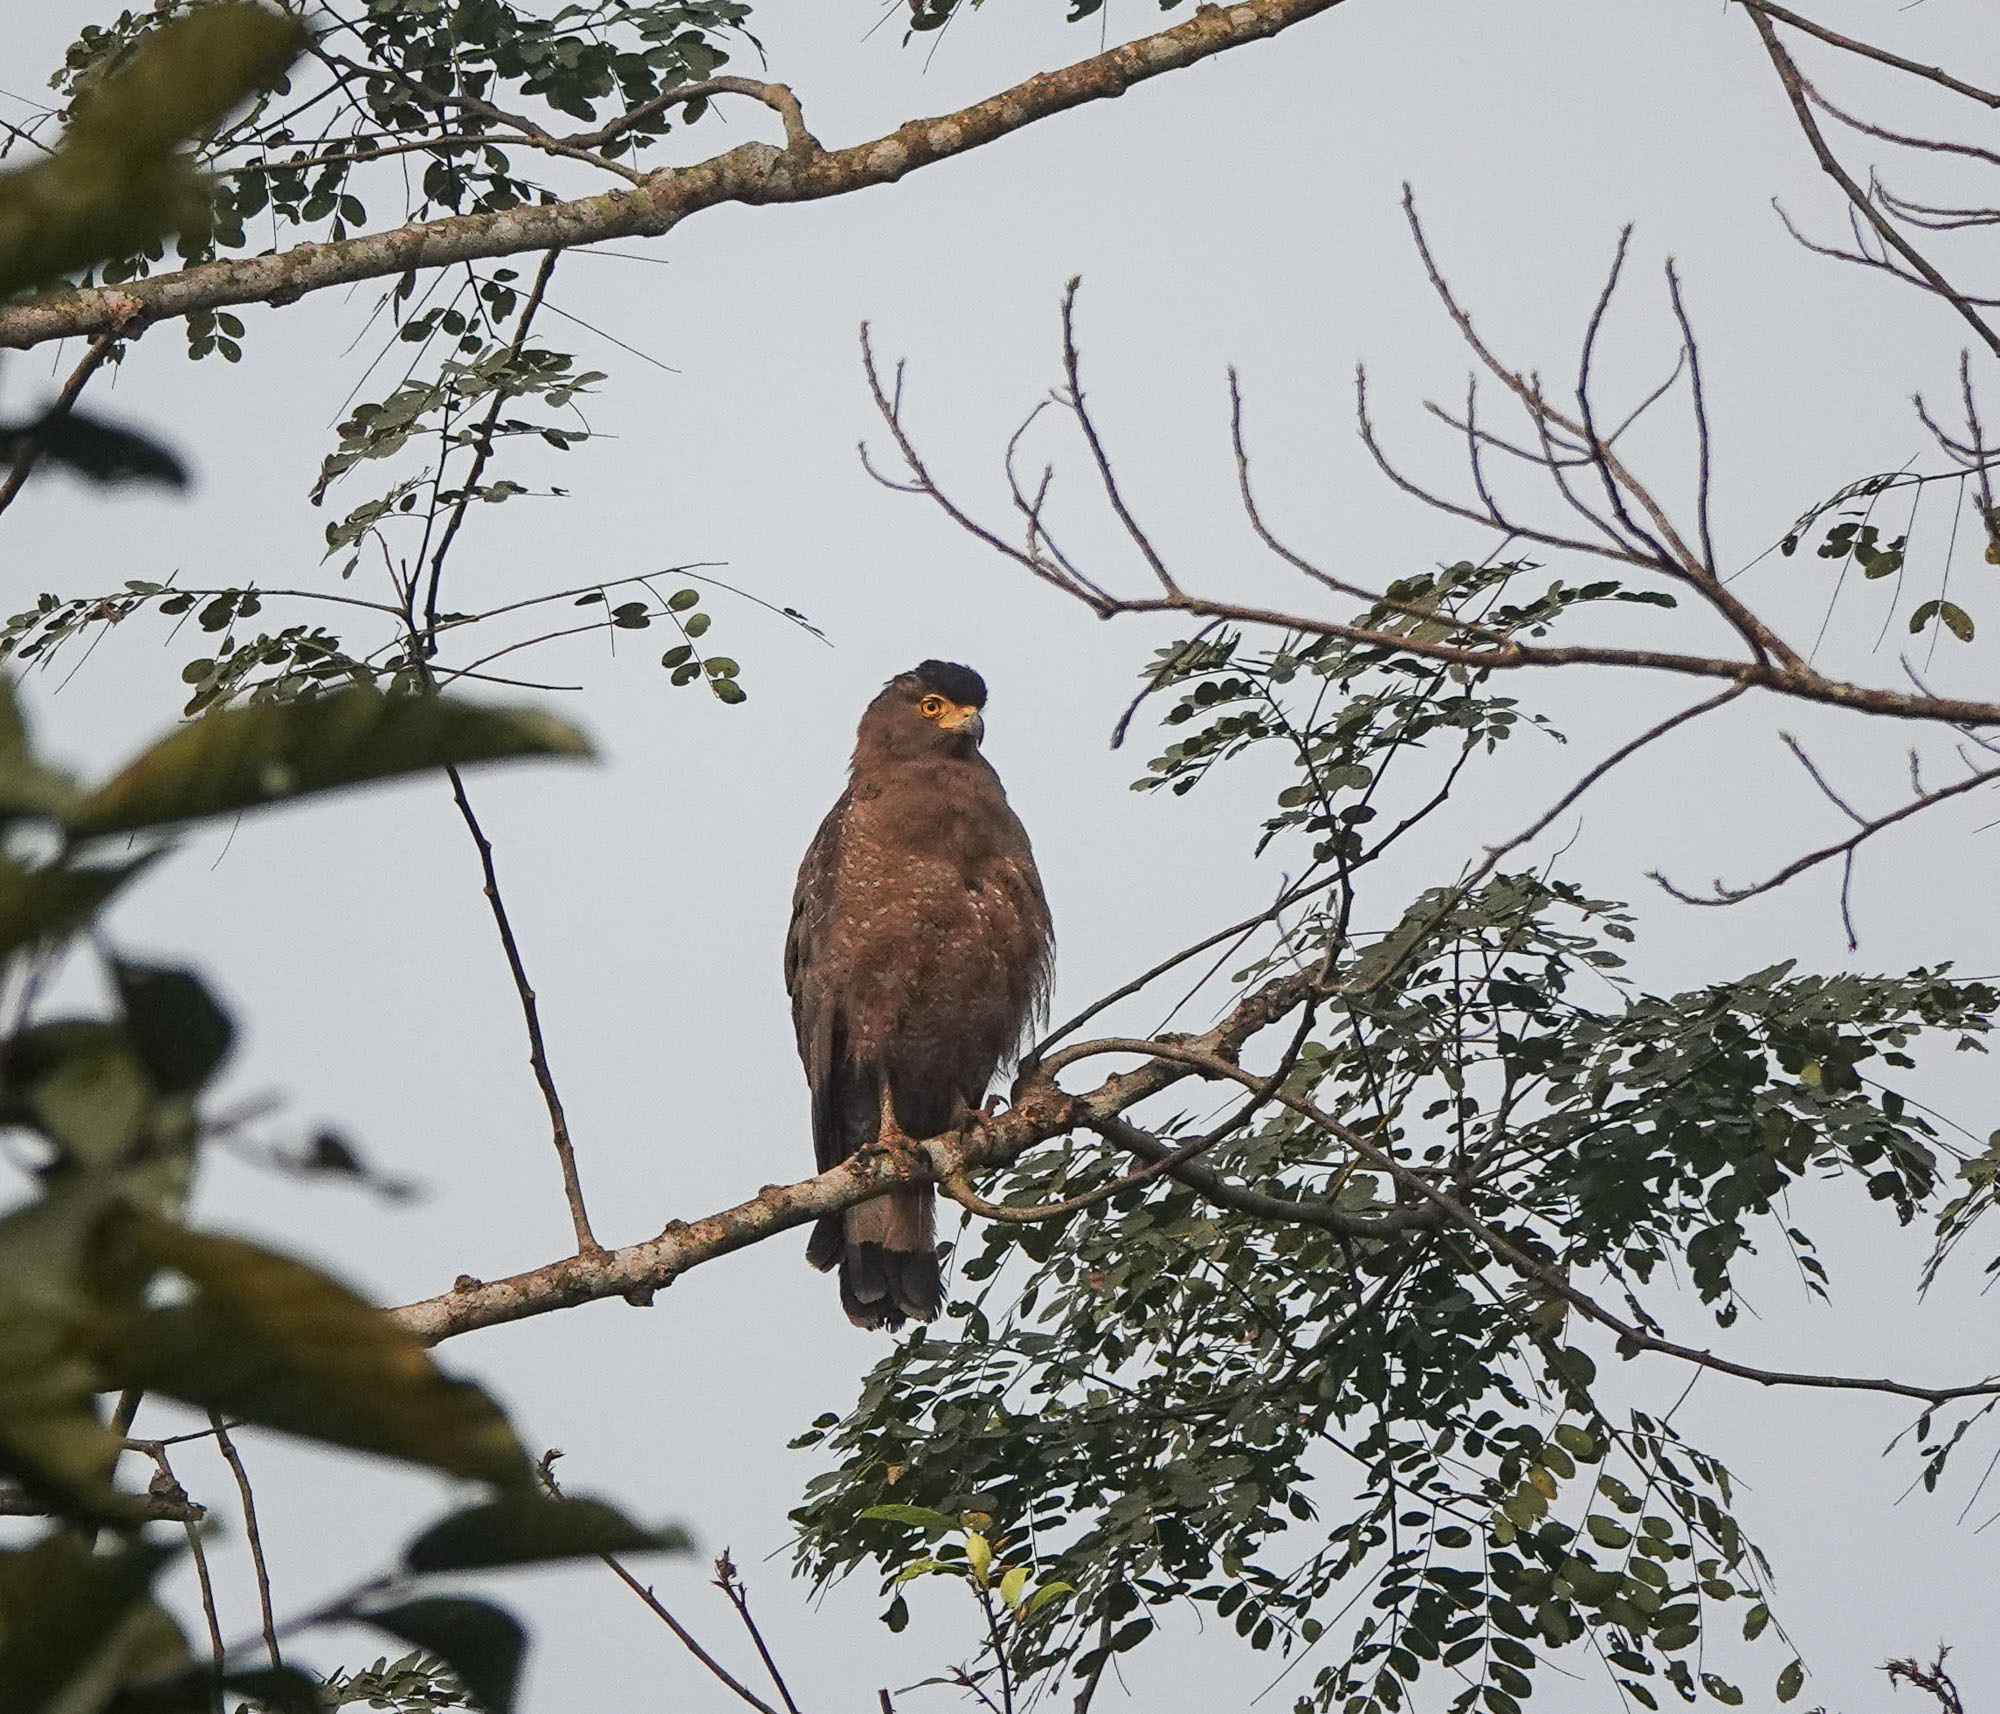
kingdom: Animalia
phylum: Chordata
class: Aves
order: Accipitriformes
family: Accipitridae
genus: Spilornis
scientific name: Spilornis cheela
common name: Crested serpent eagle
